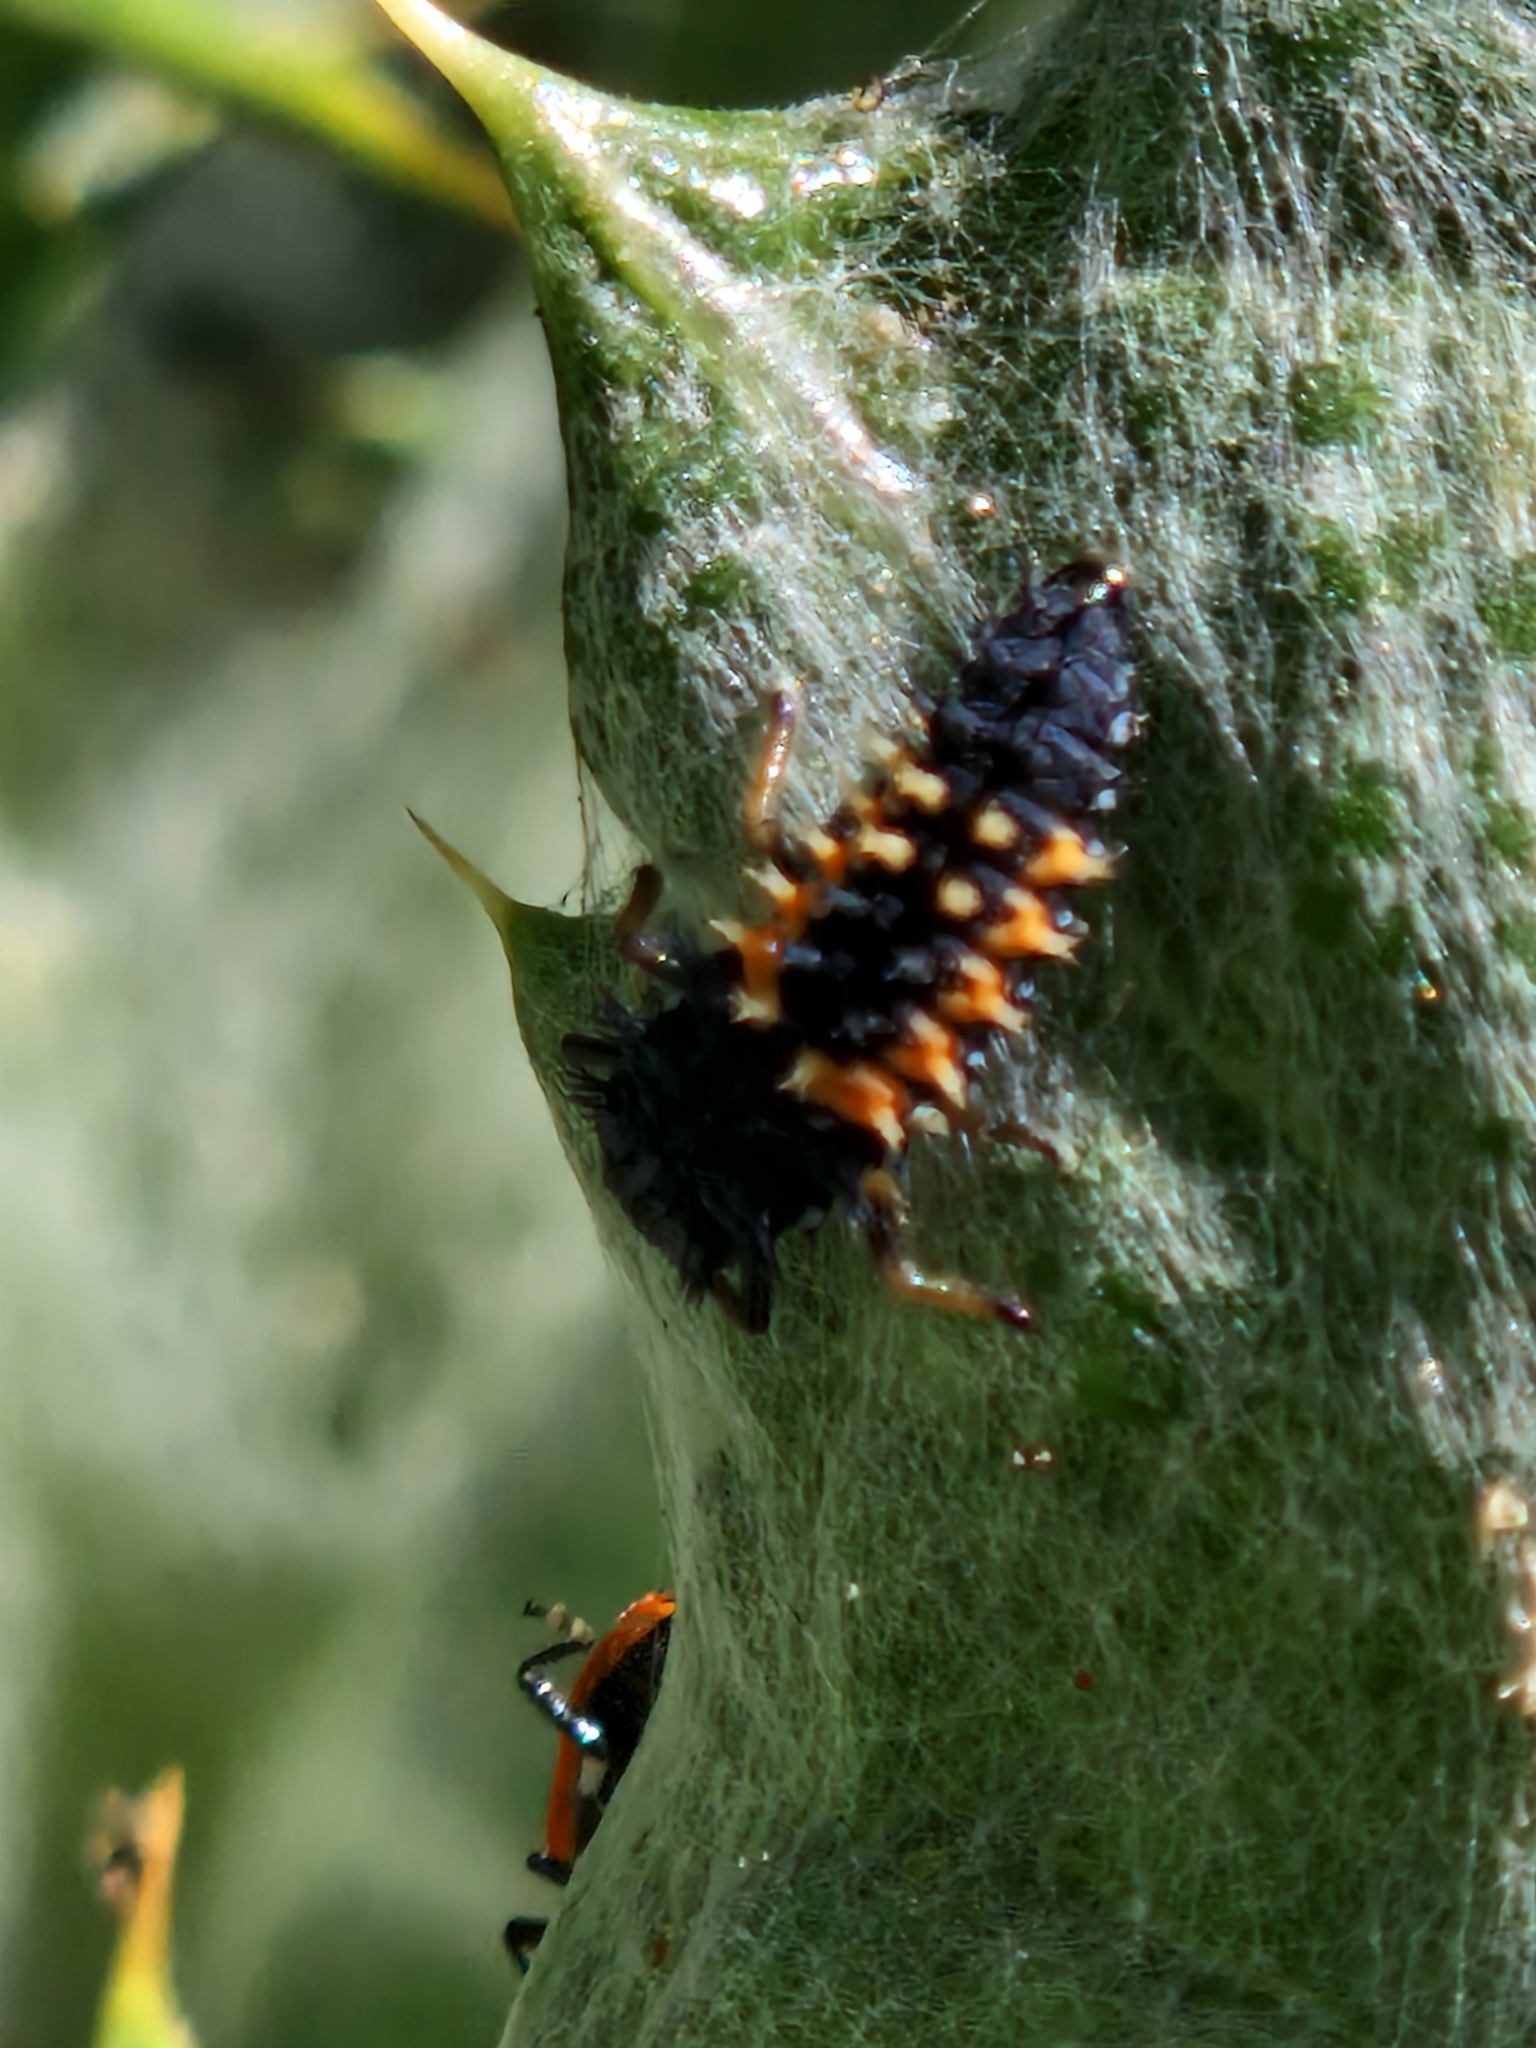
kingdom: Animalia
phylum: Arthropoda
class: Insecta
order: Coleoptera
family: Coccinellidae
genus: Harmonia
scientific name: Harmonia axyridis
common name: Harlequin ladybird
